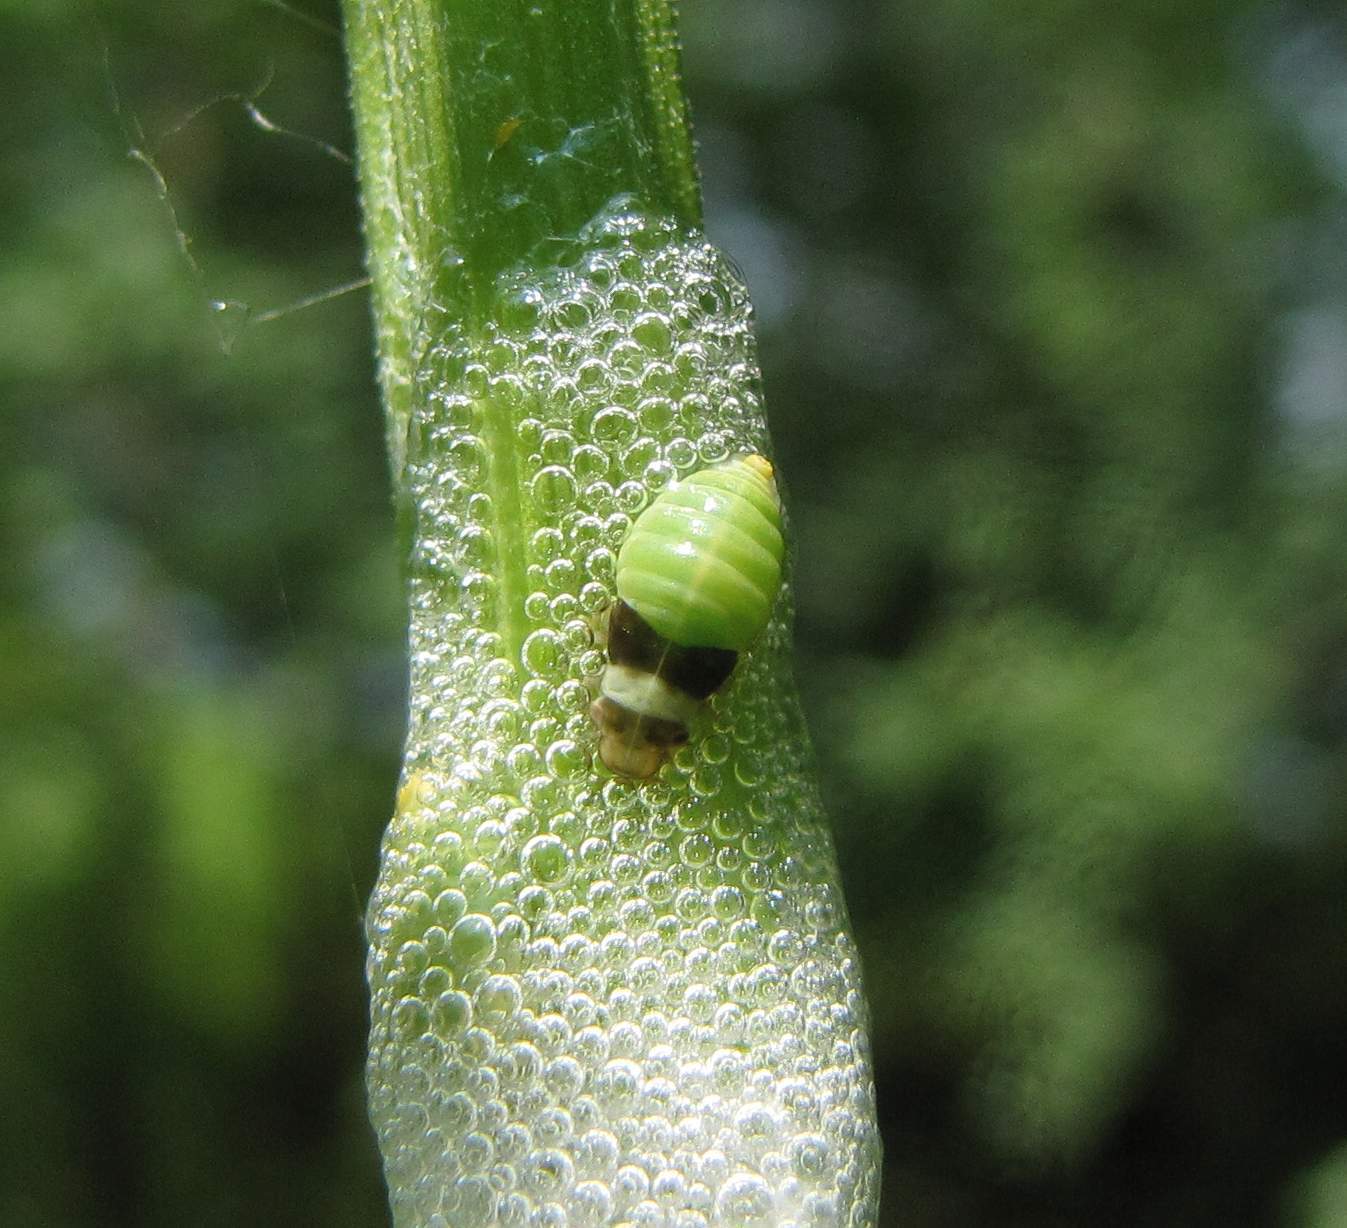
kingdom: Animalia
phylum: Arthropoda
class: Insecta
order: Hemiptera
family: Aphrophoridae
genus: Lepyronia
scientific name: Lepyronia quadrangularis
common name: Diamond-backed spittlebug
